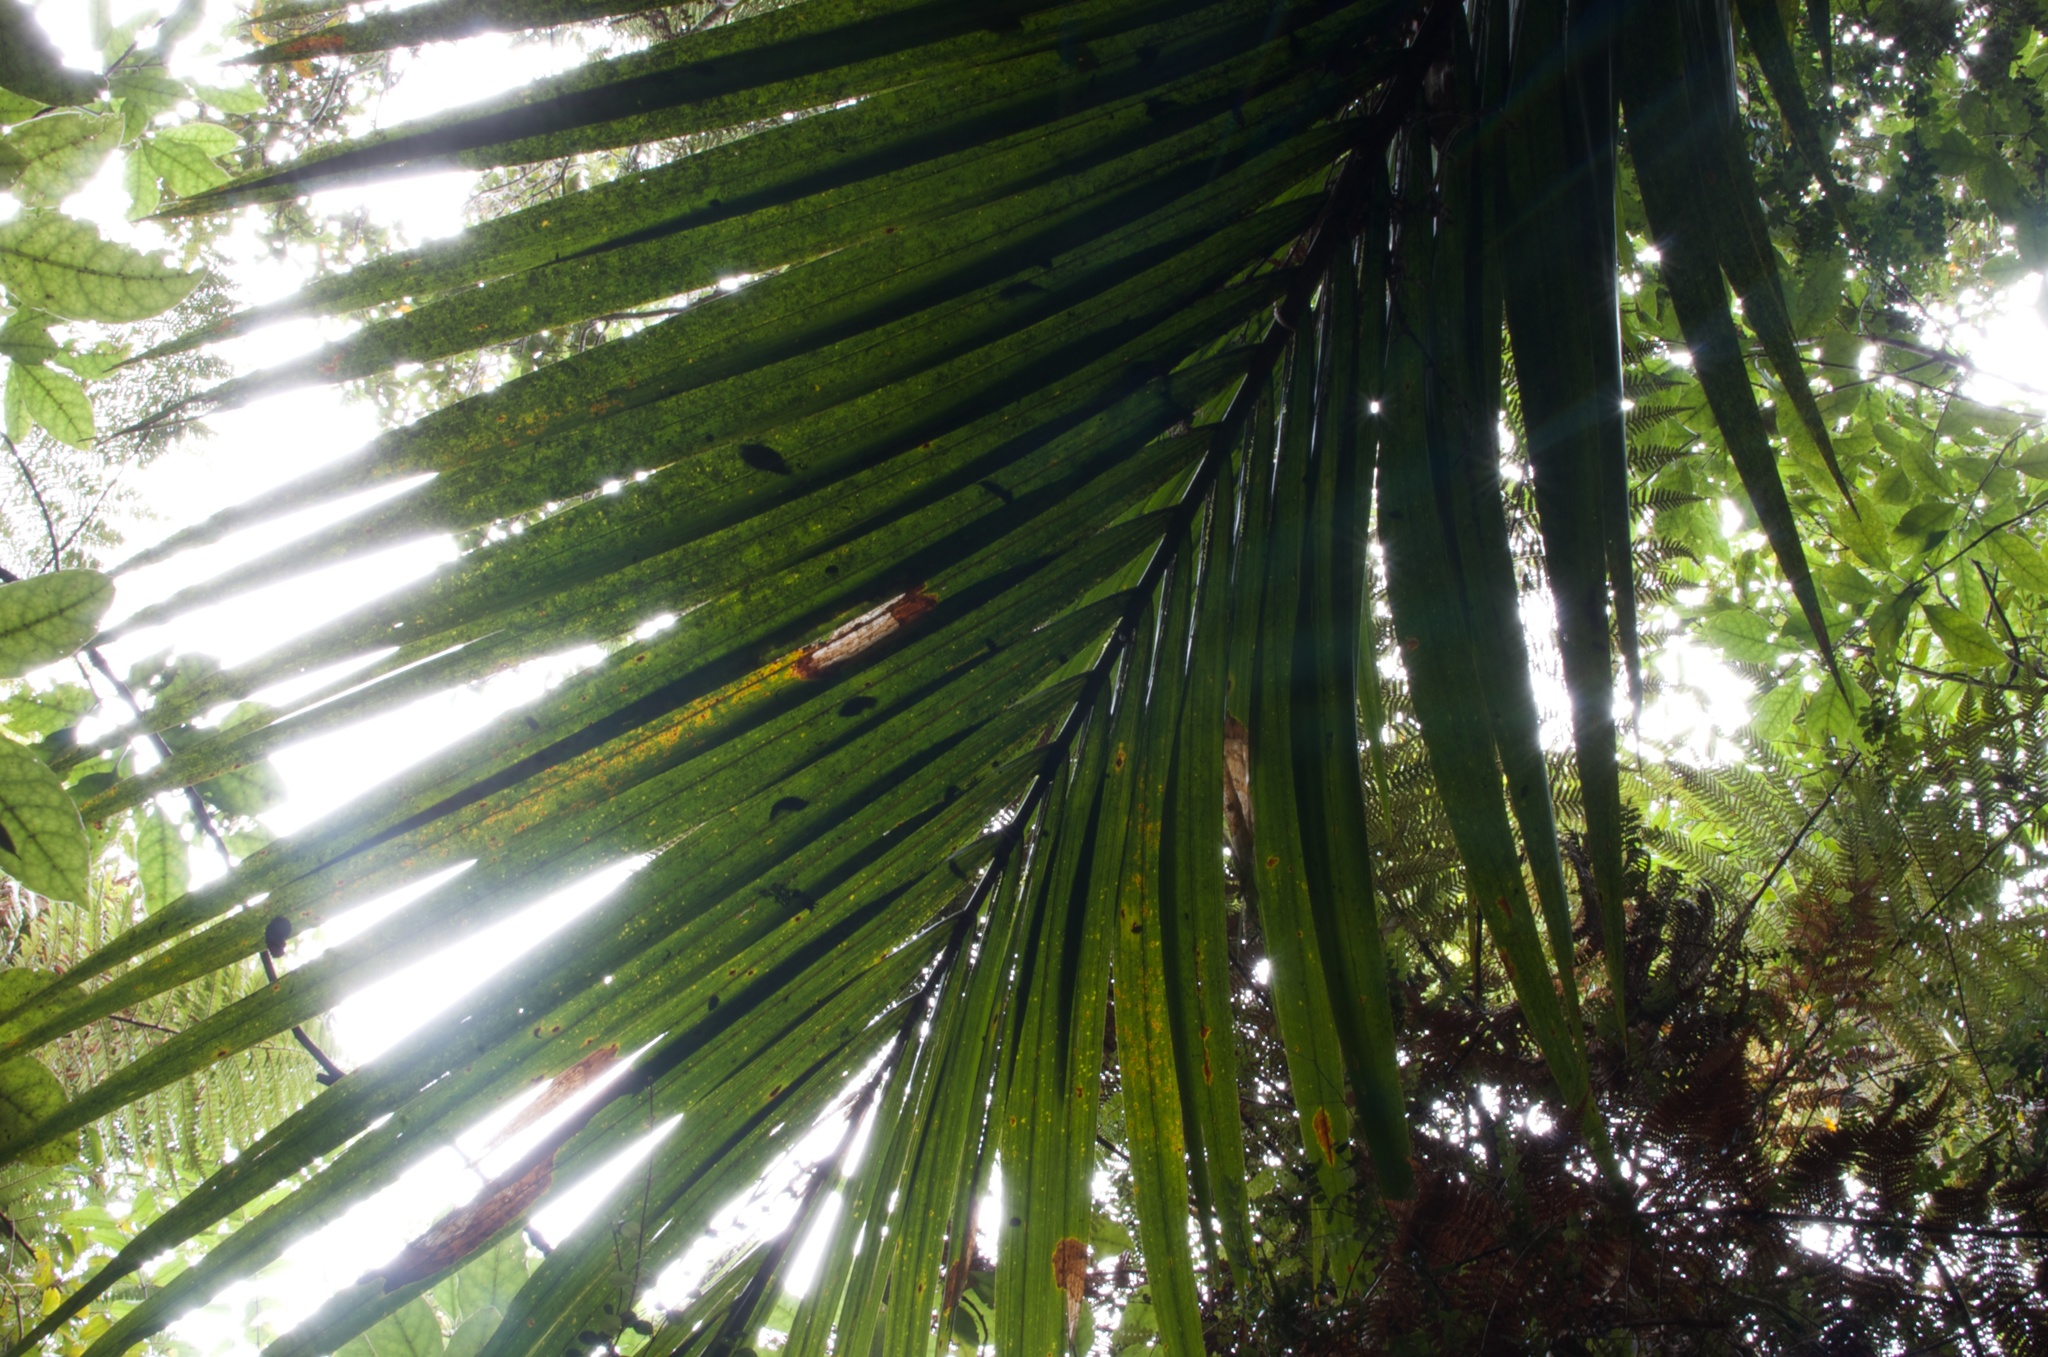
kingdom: Plantae
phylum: Tracheophyta
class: Liliopsida
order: Arecales
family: Arecaceae
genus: Rhopalostylis
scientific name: Rhopalostylis sapida
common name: Feather-duster palm
